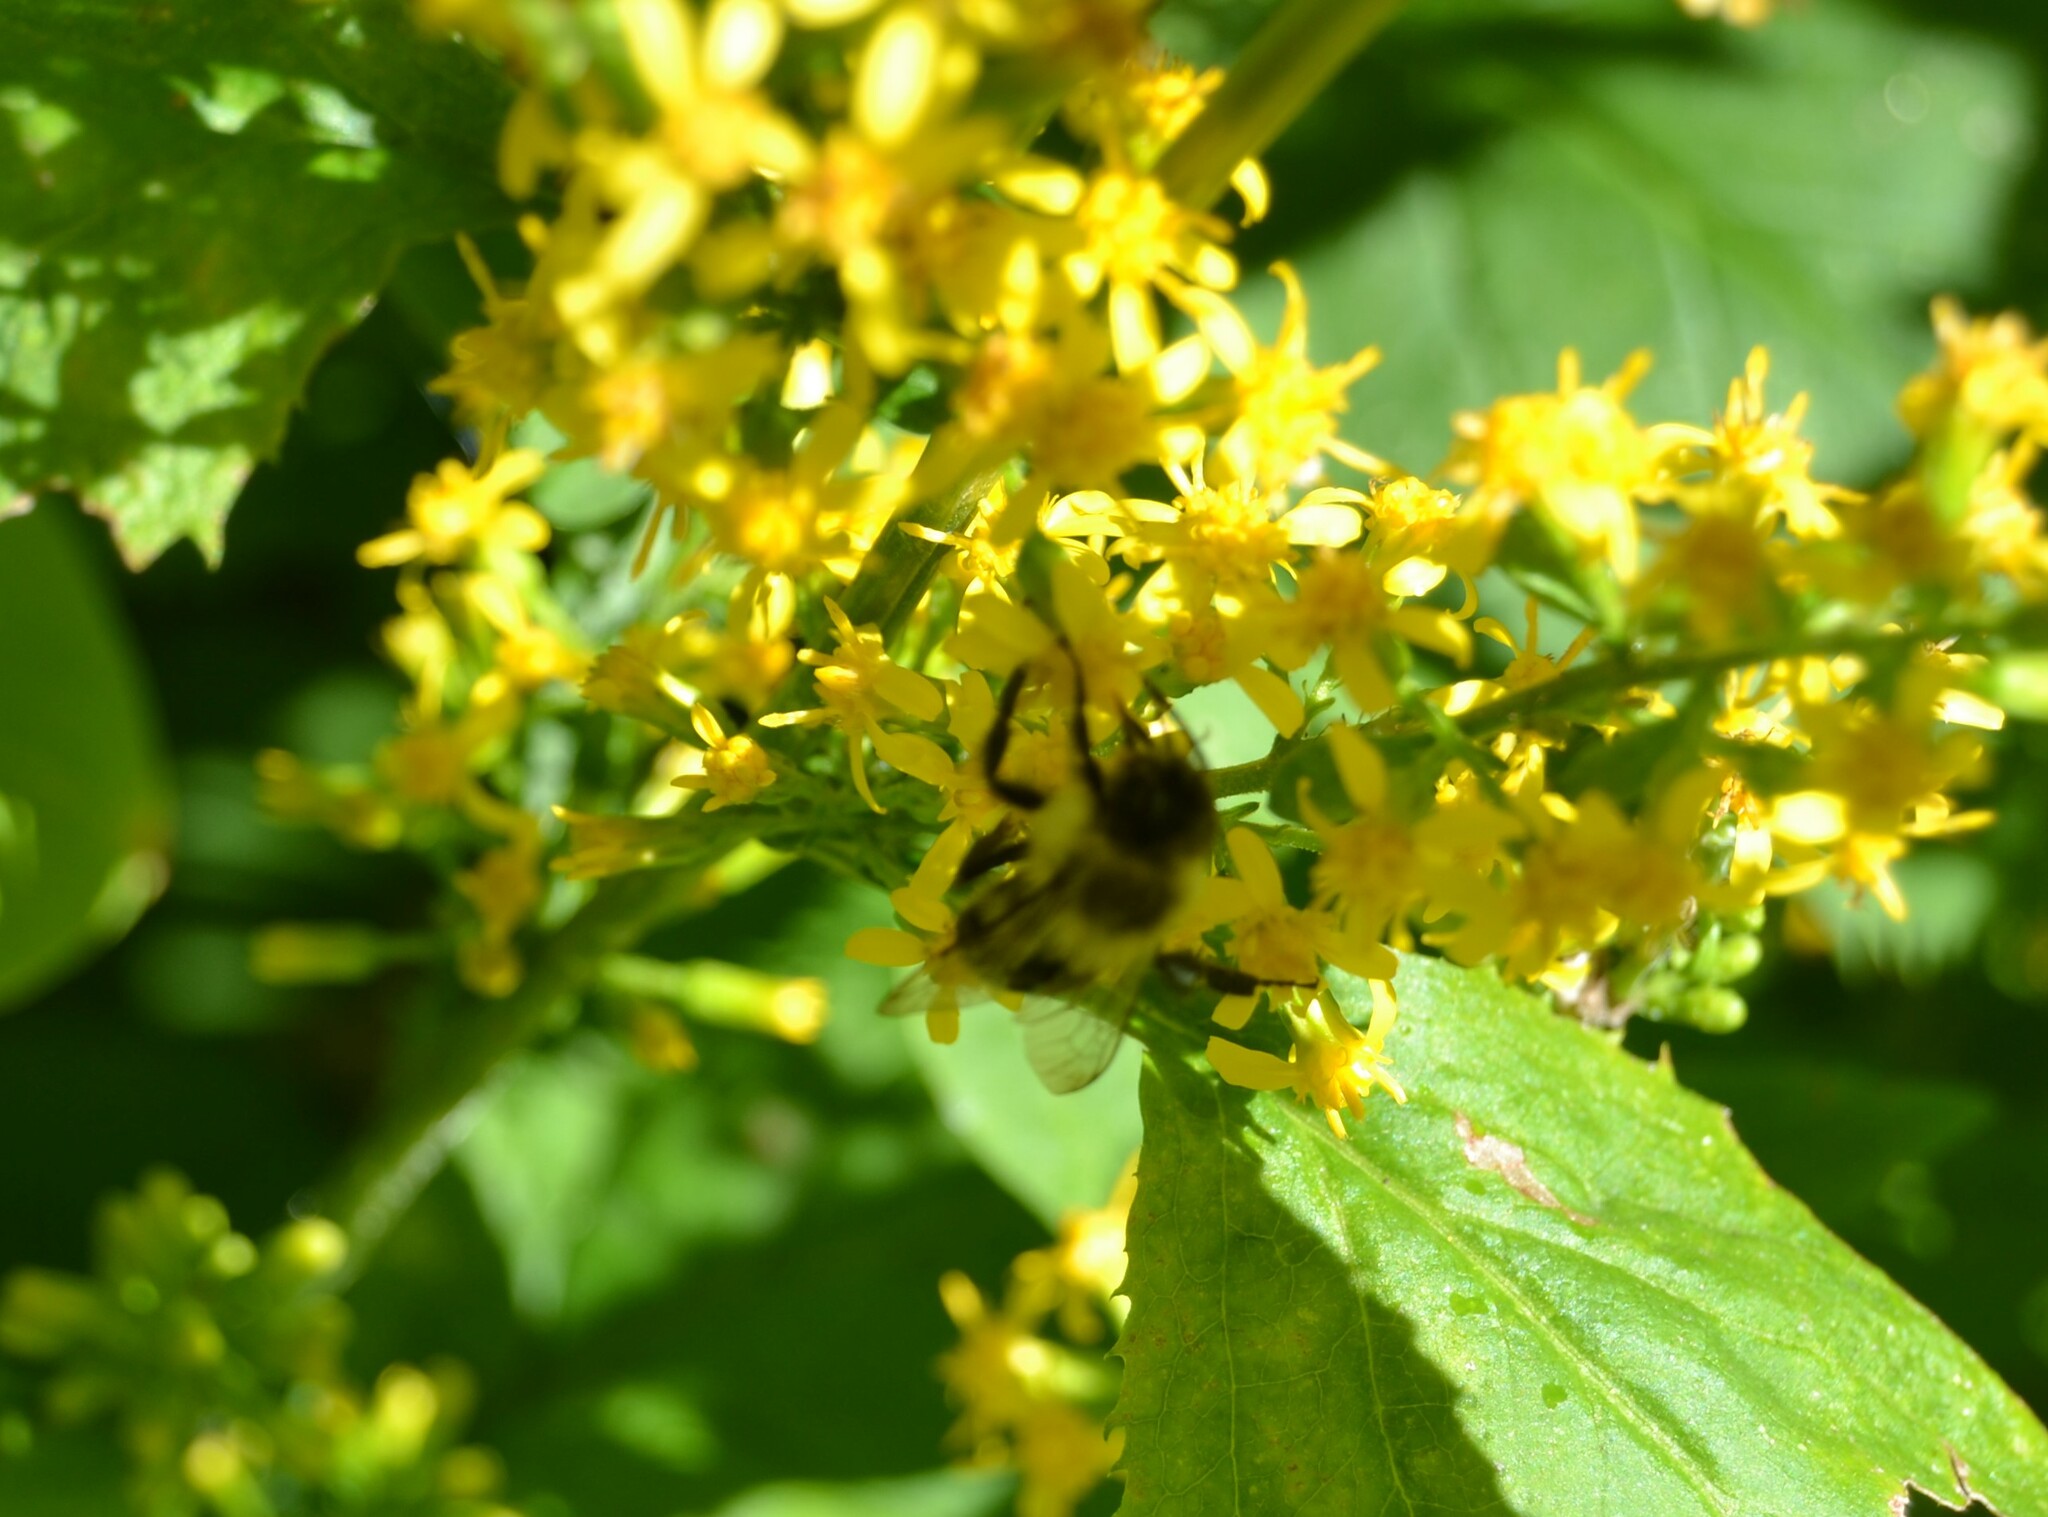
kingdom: Animalia
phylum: Arthropoda
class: Insecta
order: Hymenoptera
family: Apidae
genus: Bombus
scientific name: Bombus impatiens
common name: Common eastern bumble bee
